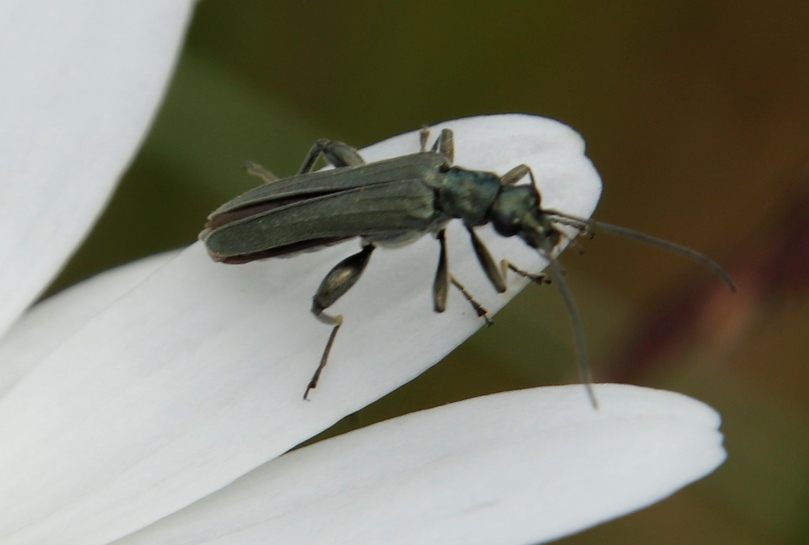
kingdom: Animalia
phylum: Arthropoda
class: Insecta
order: Coleoptera
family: Oedemeridae
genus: Oedemera
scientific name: Oedemera virescens
